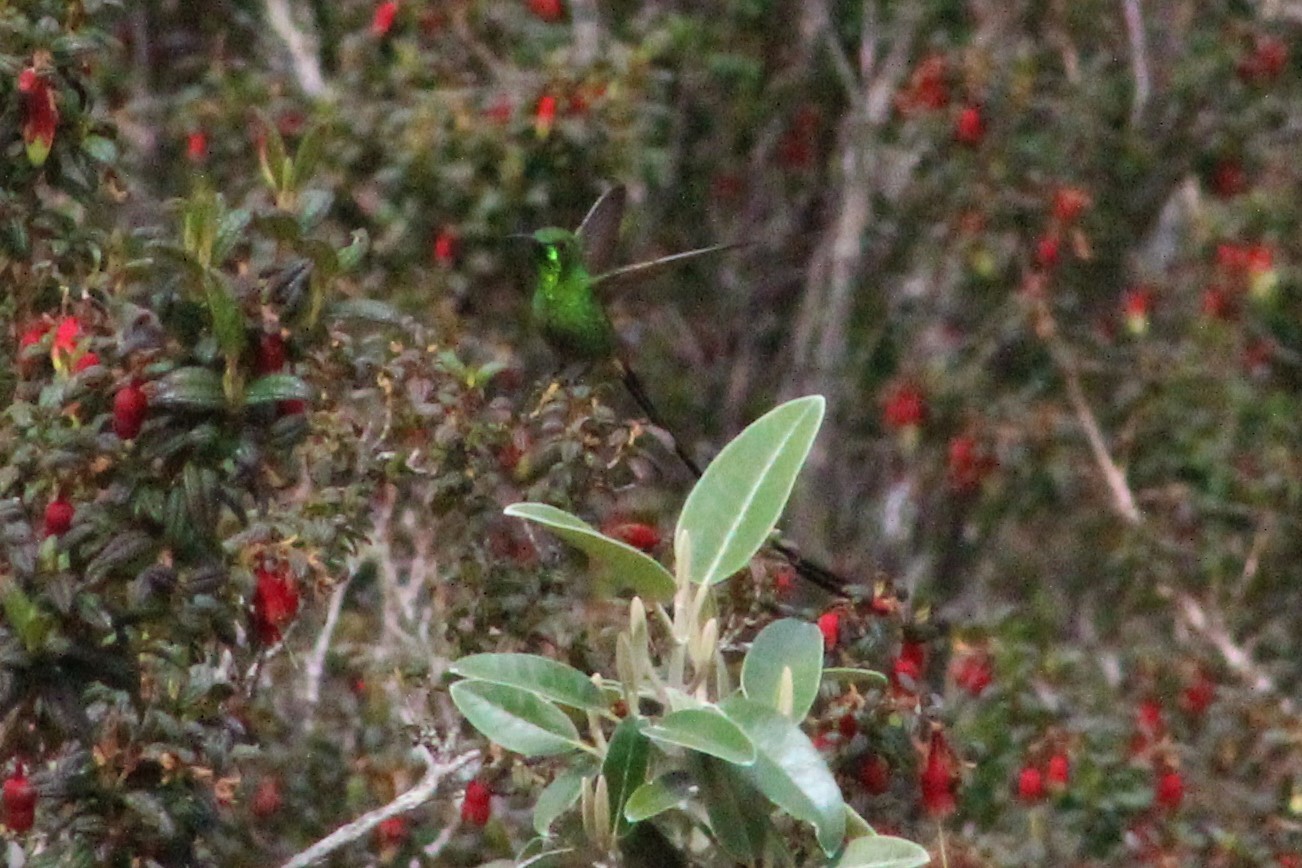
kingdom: Animalia
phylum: Chordata
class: Aves
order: Apodiformes
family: Trochilidae
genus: Lesbia
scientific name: Lesbia victoriae
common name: Black-tailed trainbearer
